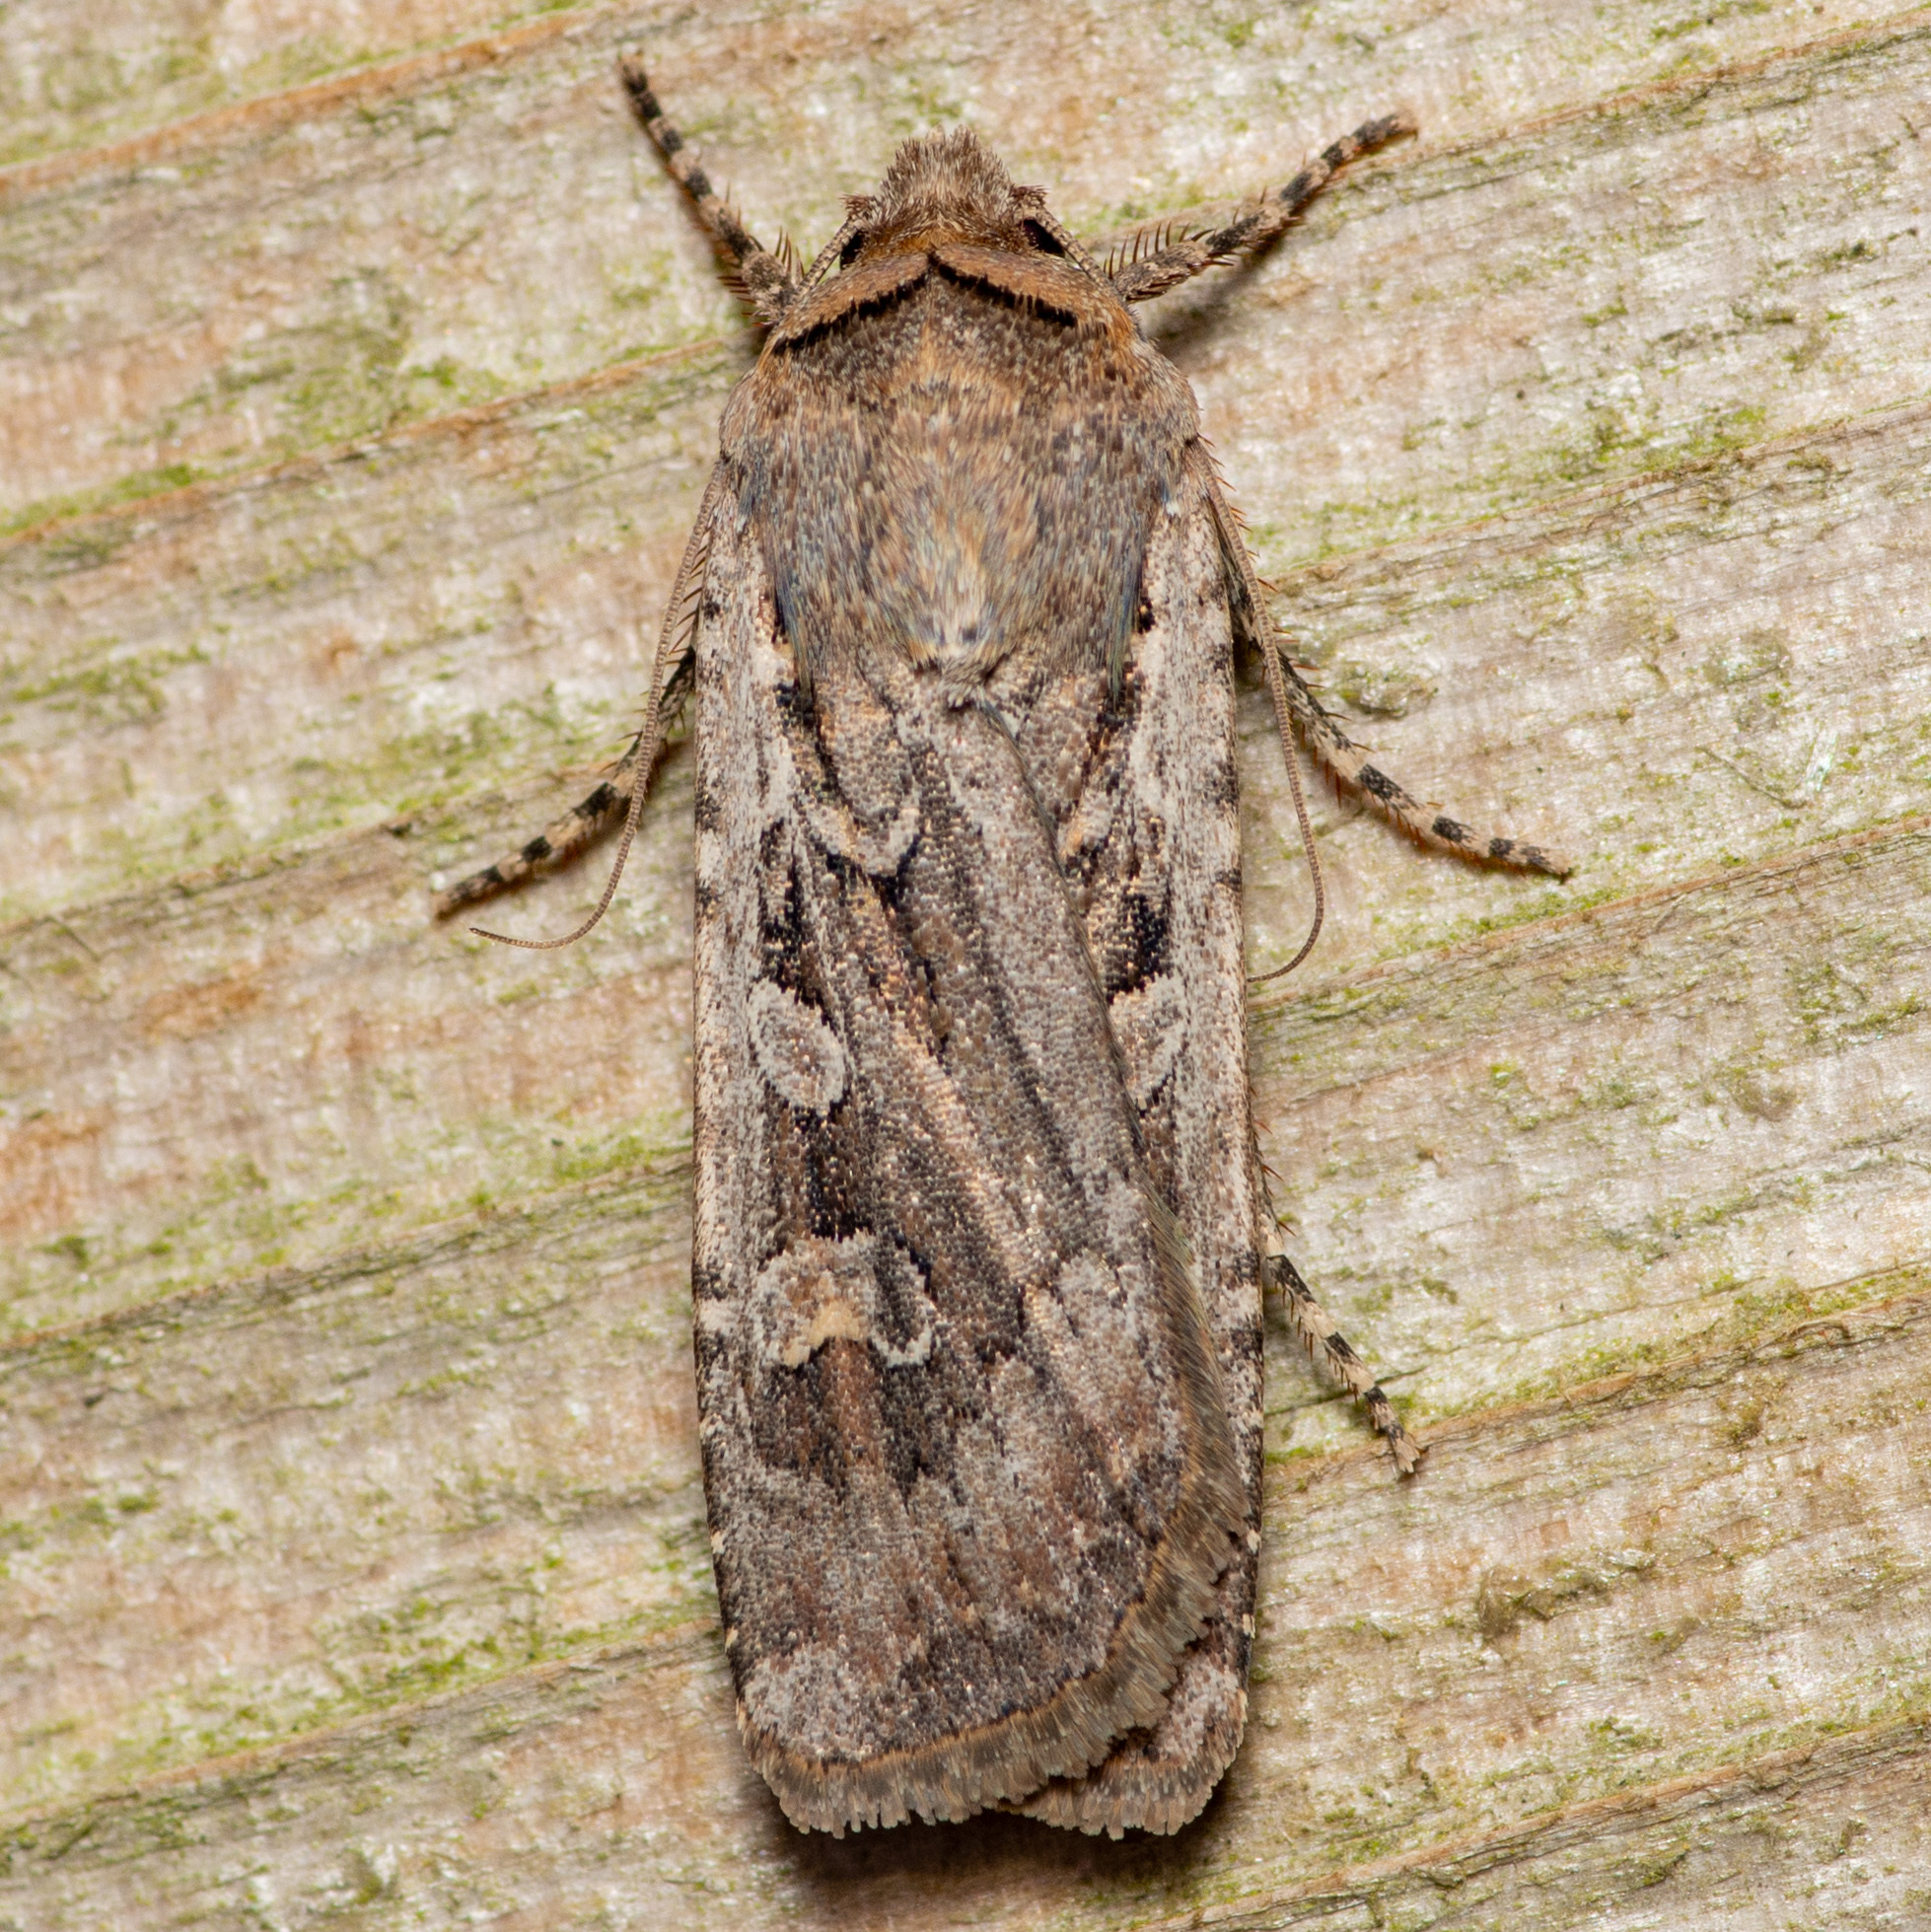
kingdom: Animalia
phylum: Arthropoda
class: Insecta
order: Lepidoptera
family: Noctuidae
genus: Euxoa
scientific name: Euxoa auxiliaris
